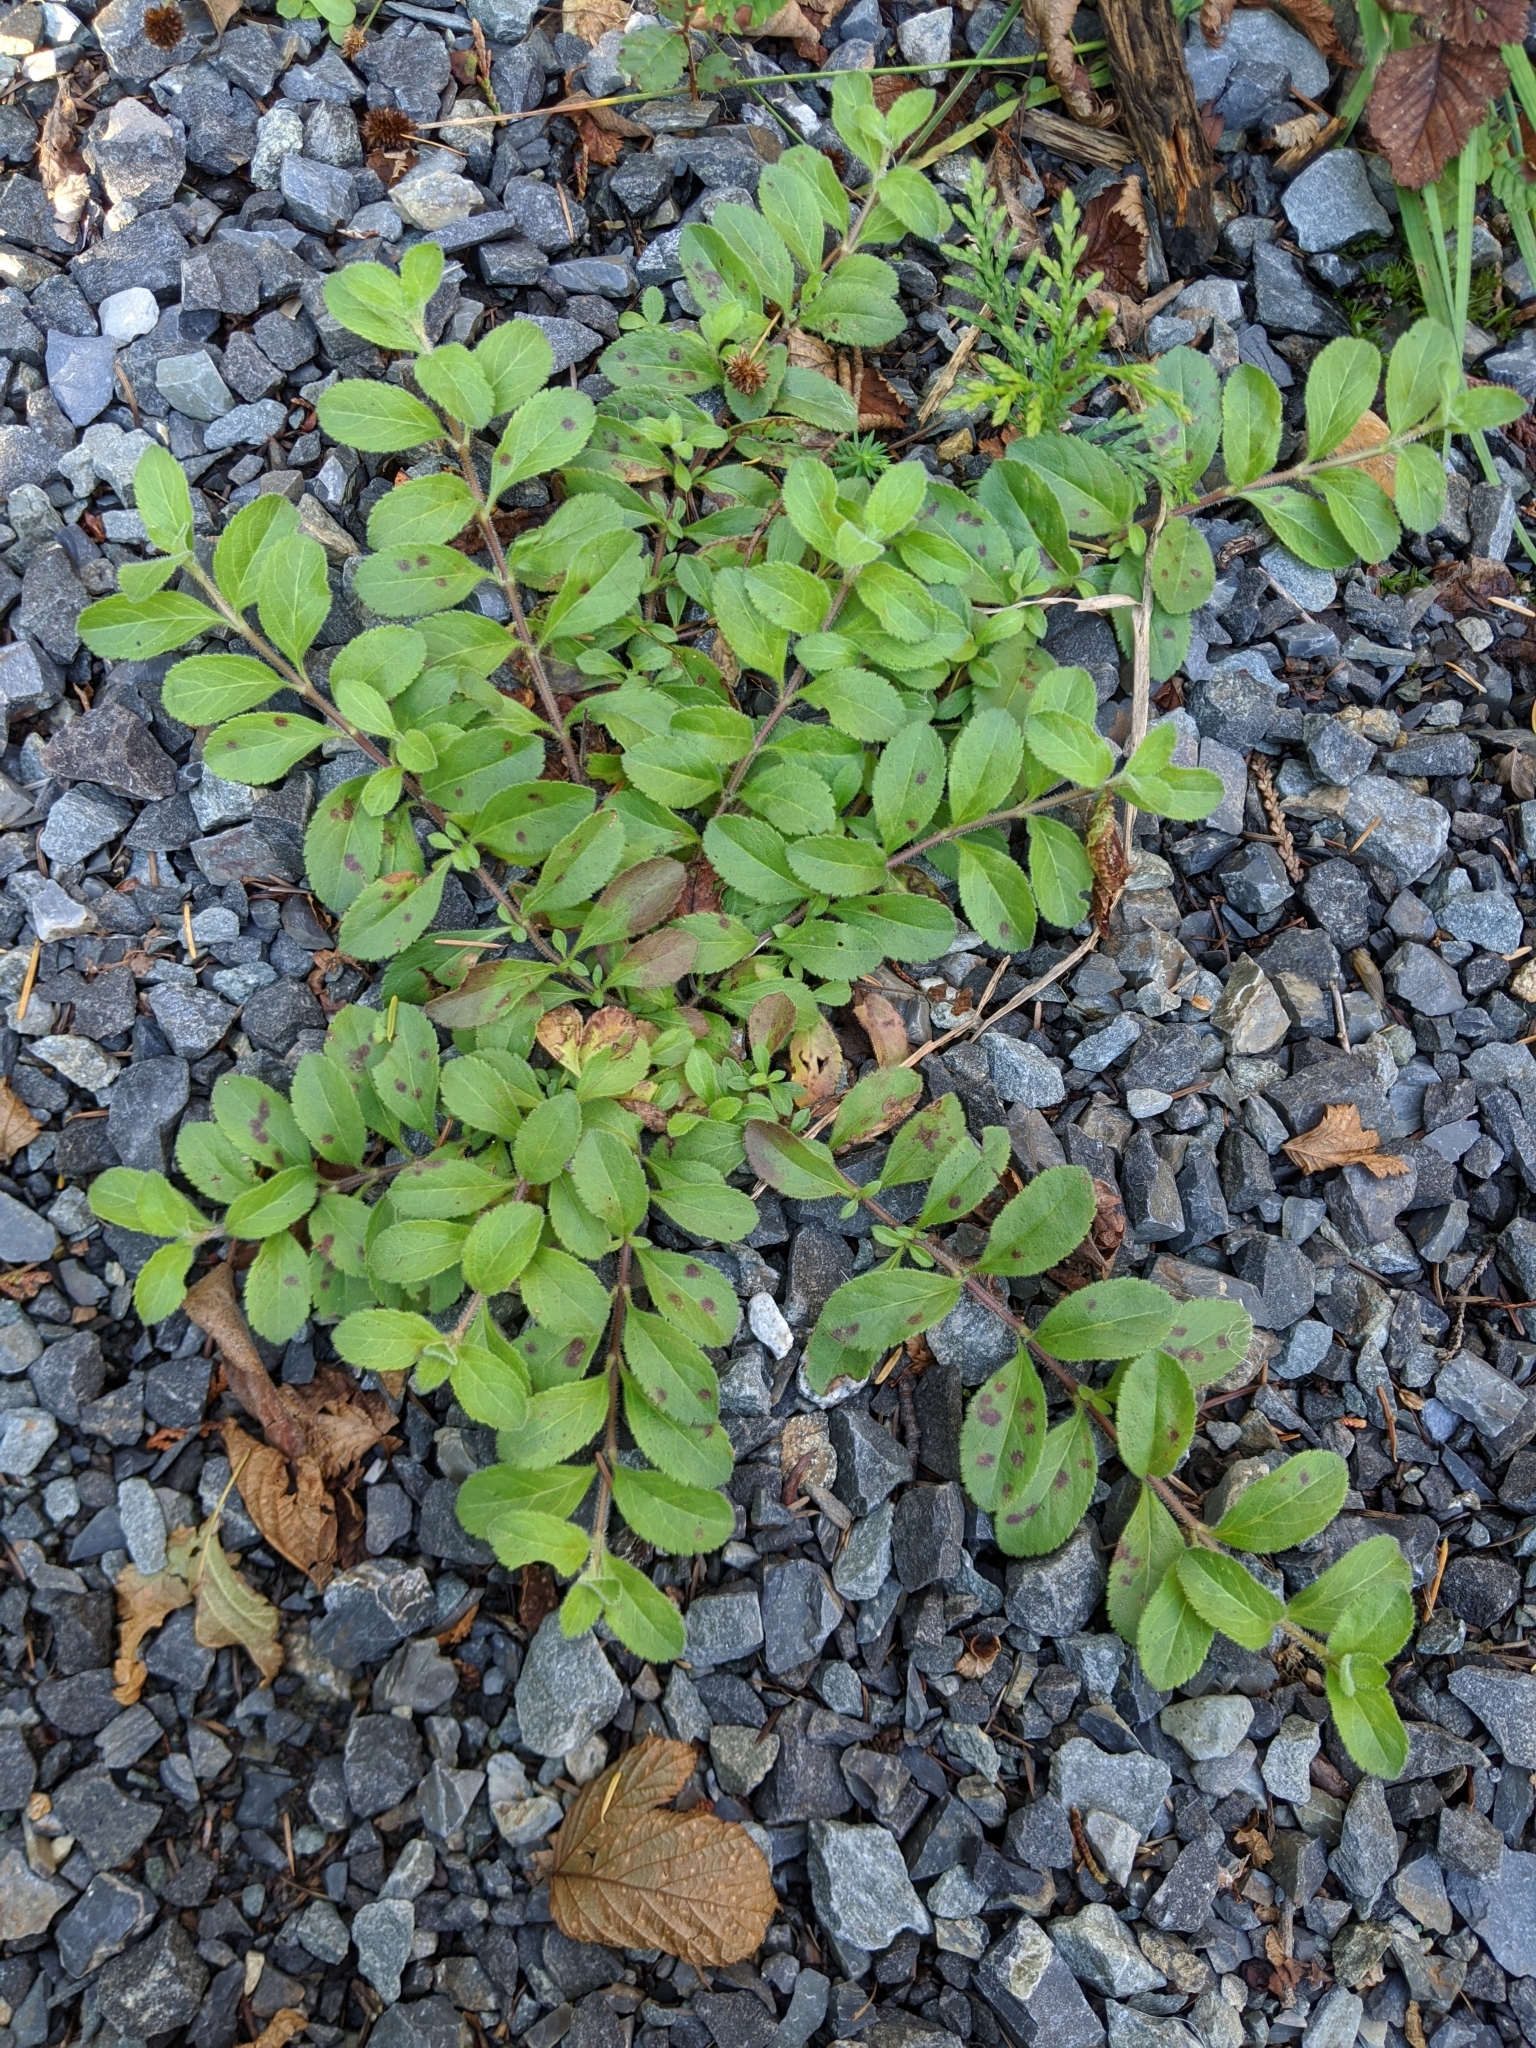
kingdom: Plantae
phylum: Tracheophyta
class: Magnoliopsida
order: Lamiales
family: Plantaginaceae
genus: Veronica
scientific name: Veronica officinalis
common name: Common speedwell
